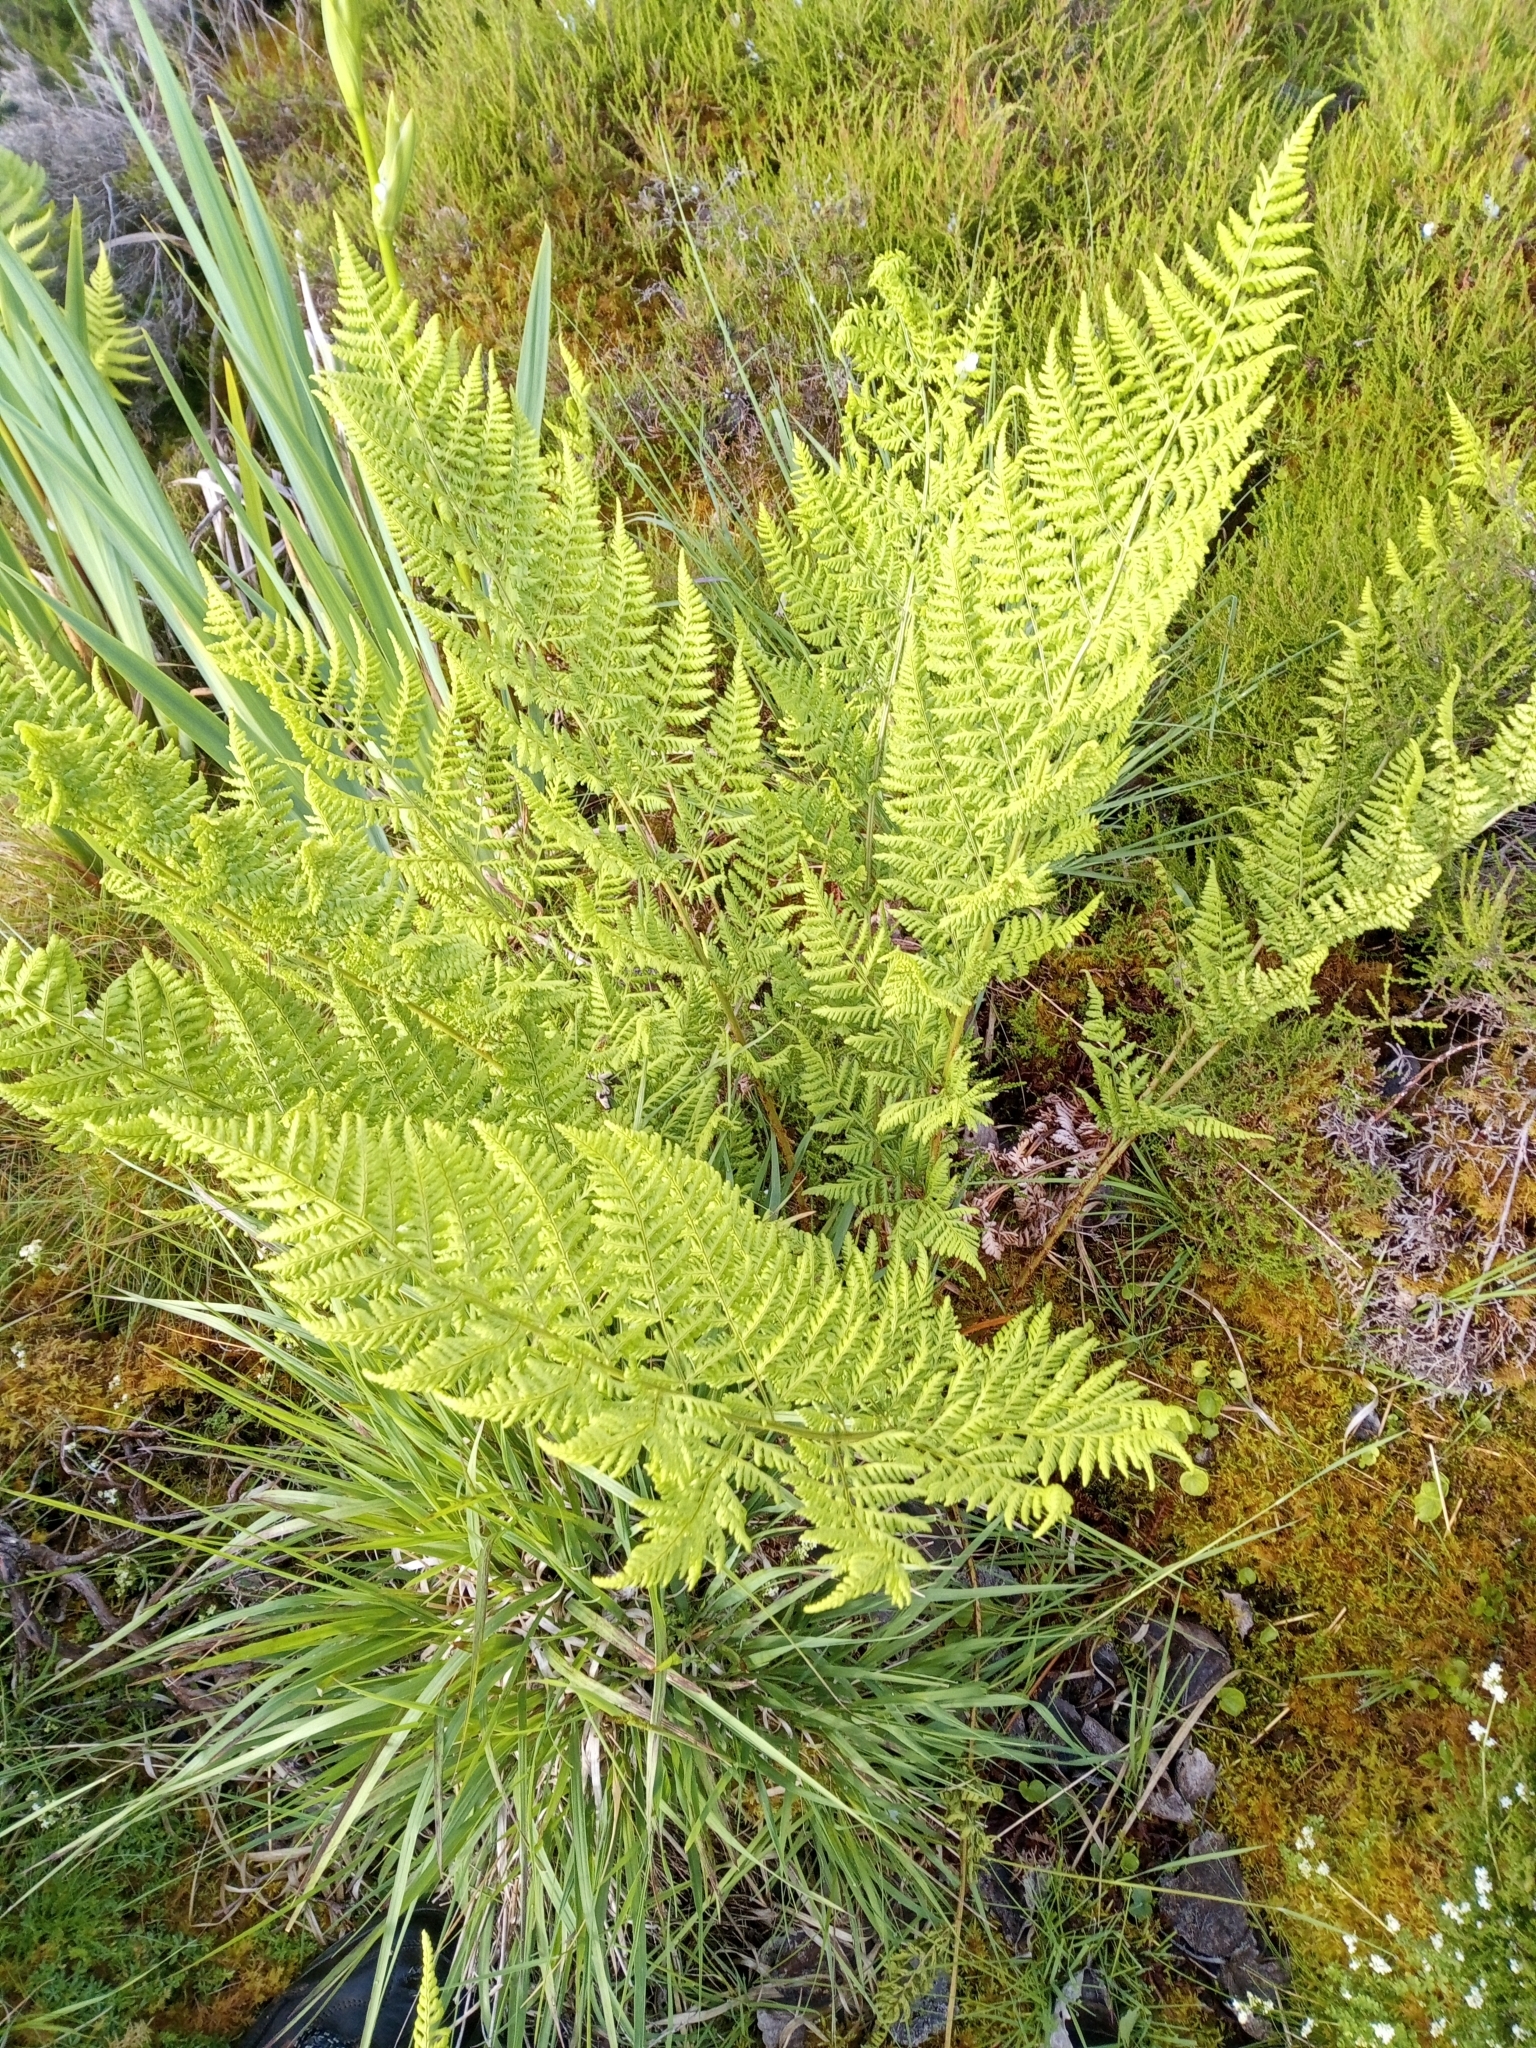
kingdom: Plantae
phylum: Tracheophyta
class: Polypodiopsida
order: Polypodiales
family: Dryopteridaceae
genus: Dryopteris
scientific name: Dryopteris carthusiana
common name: Narrow buckler-fern
